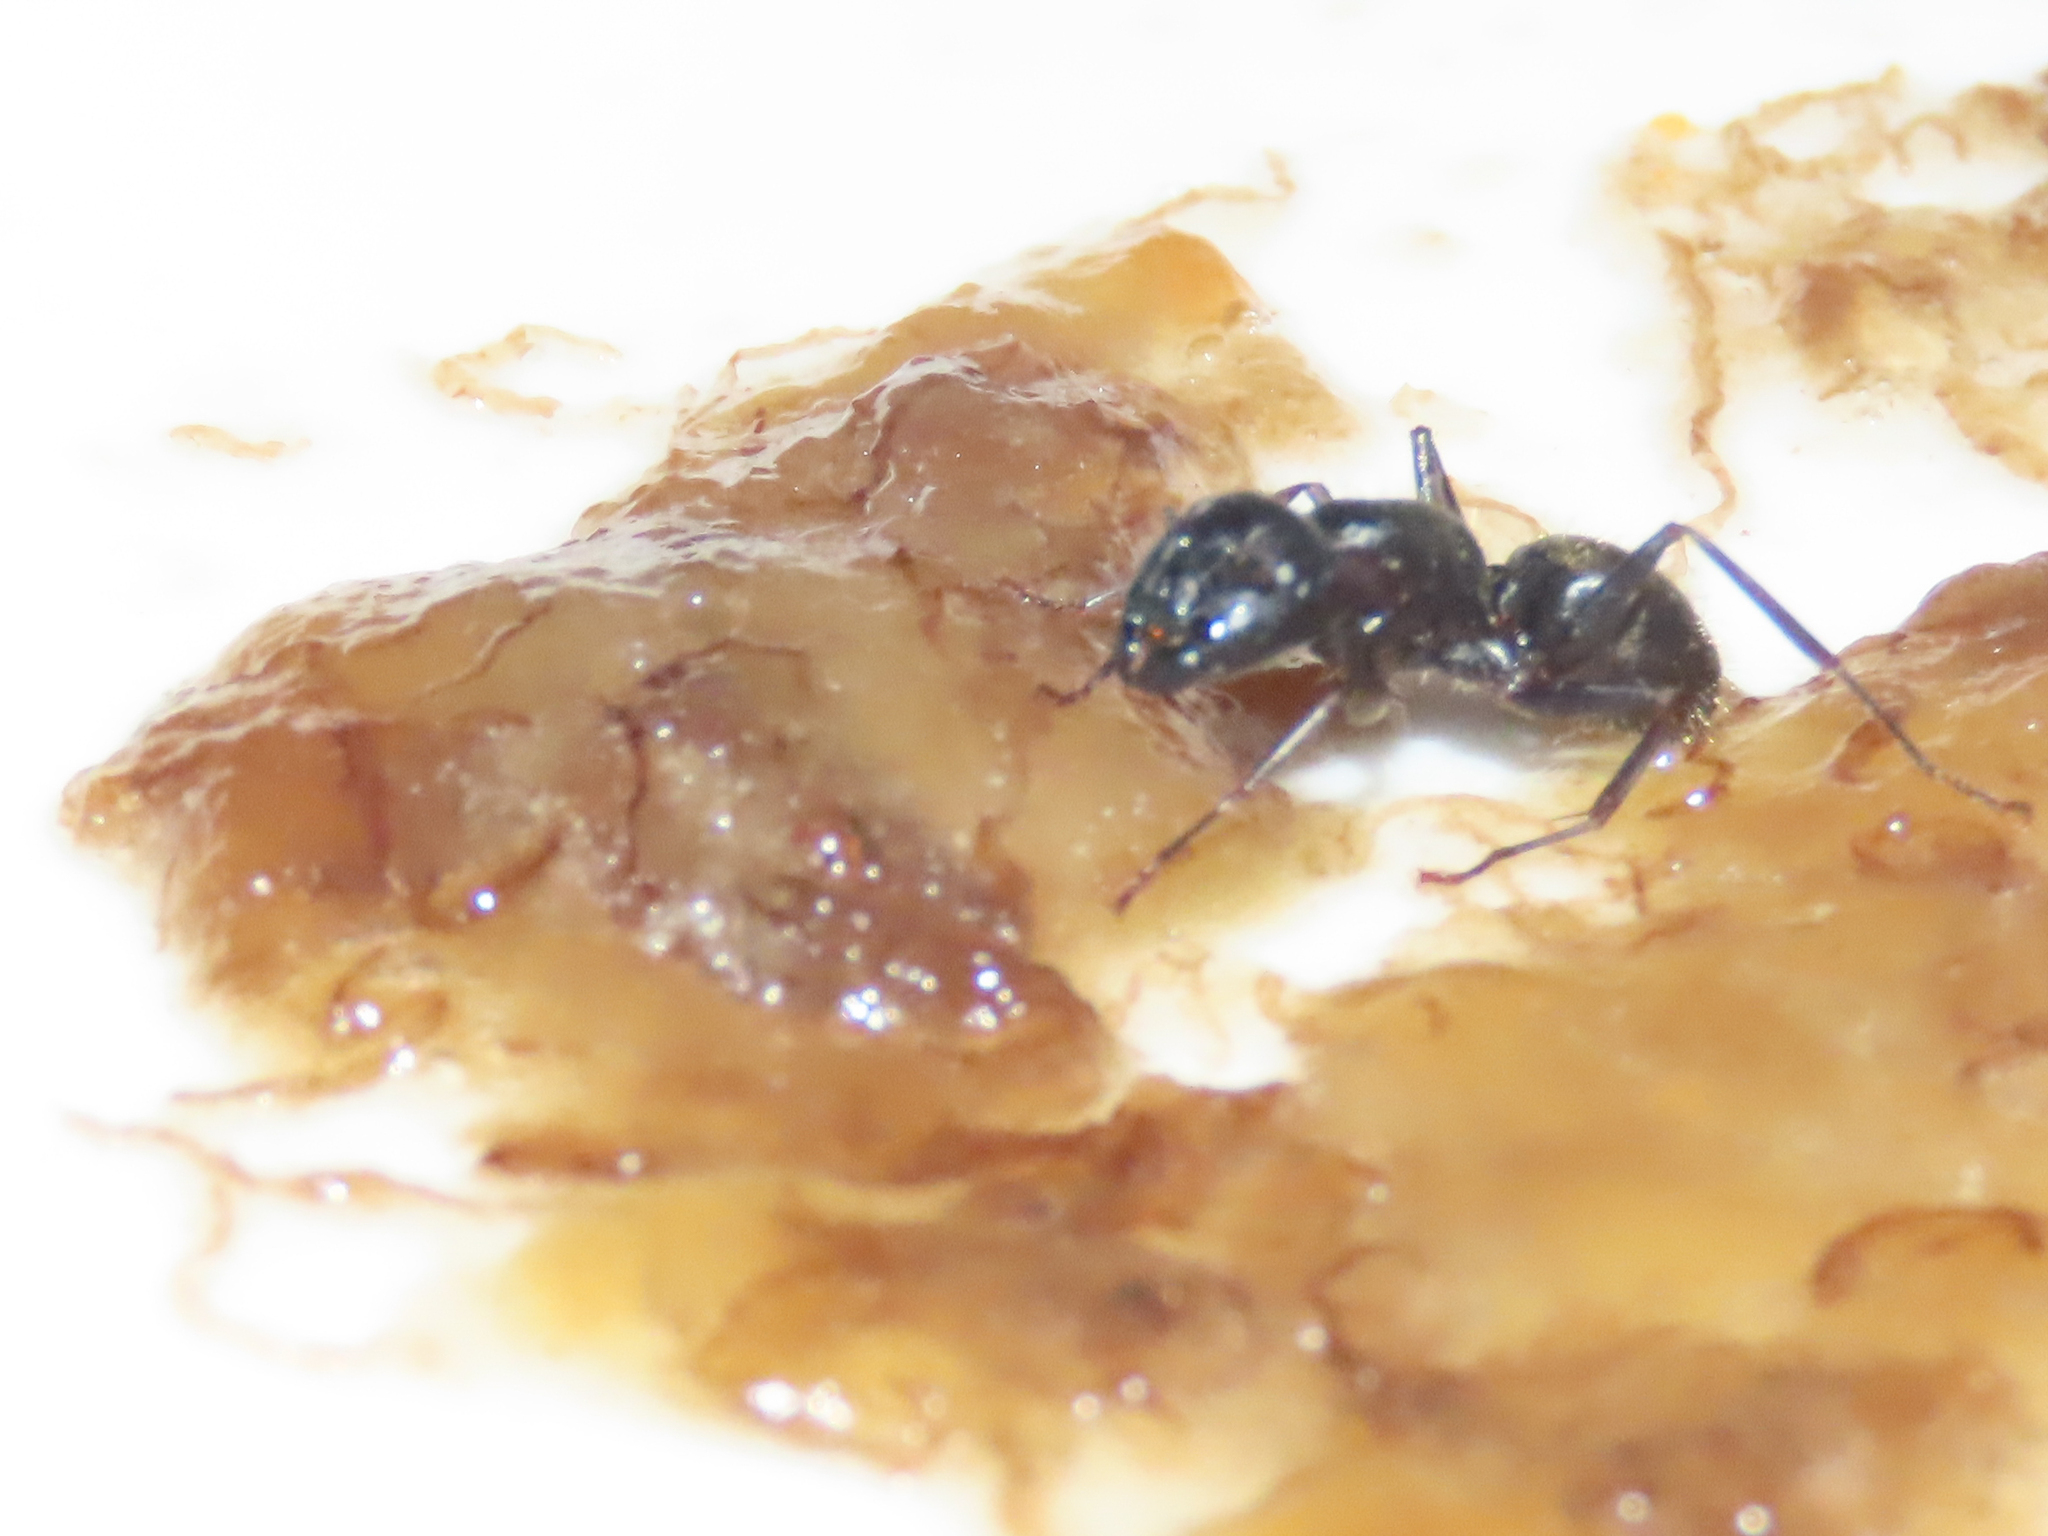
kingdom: Animalia
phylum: Arthropoda
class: Insecta
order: Hymenoptera
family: Formicidae
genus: Camponotus
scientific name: Camponotus pennsylvanicus
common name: Black carpenter ant
